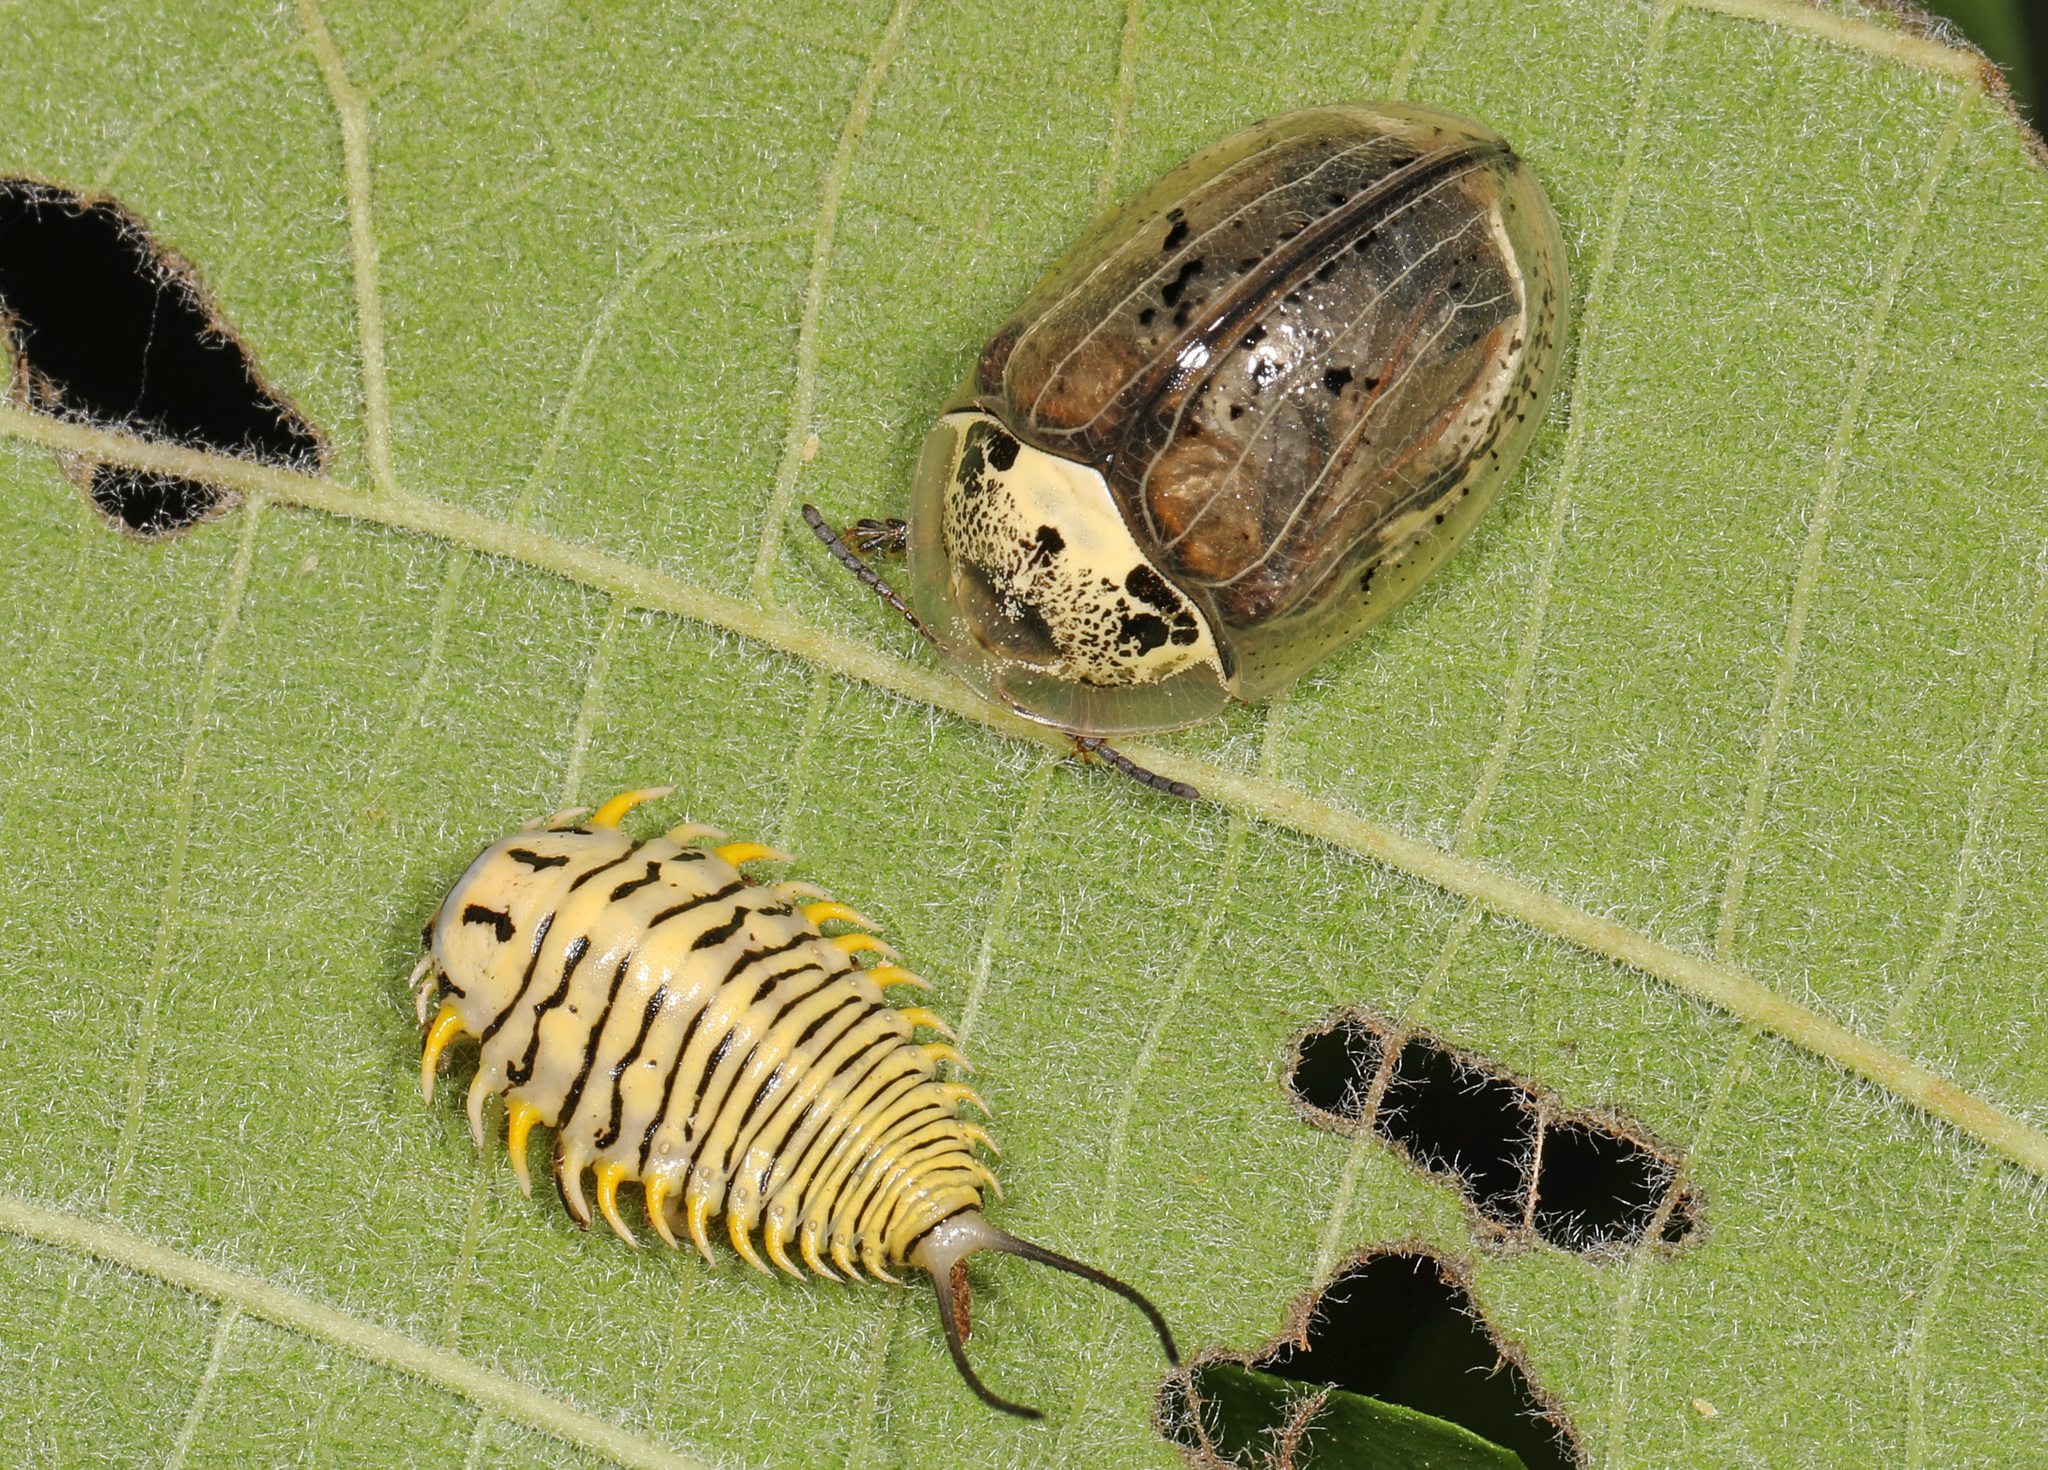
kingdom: Animalia
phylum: Arthropoda
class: Insecta
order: Coleoptera
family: Chrysomelidae
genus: Physonota
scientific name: Physonota alutacea
